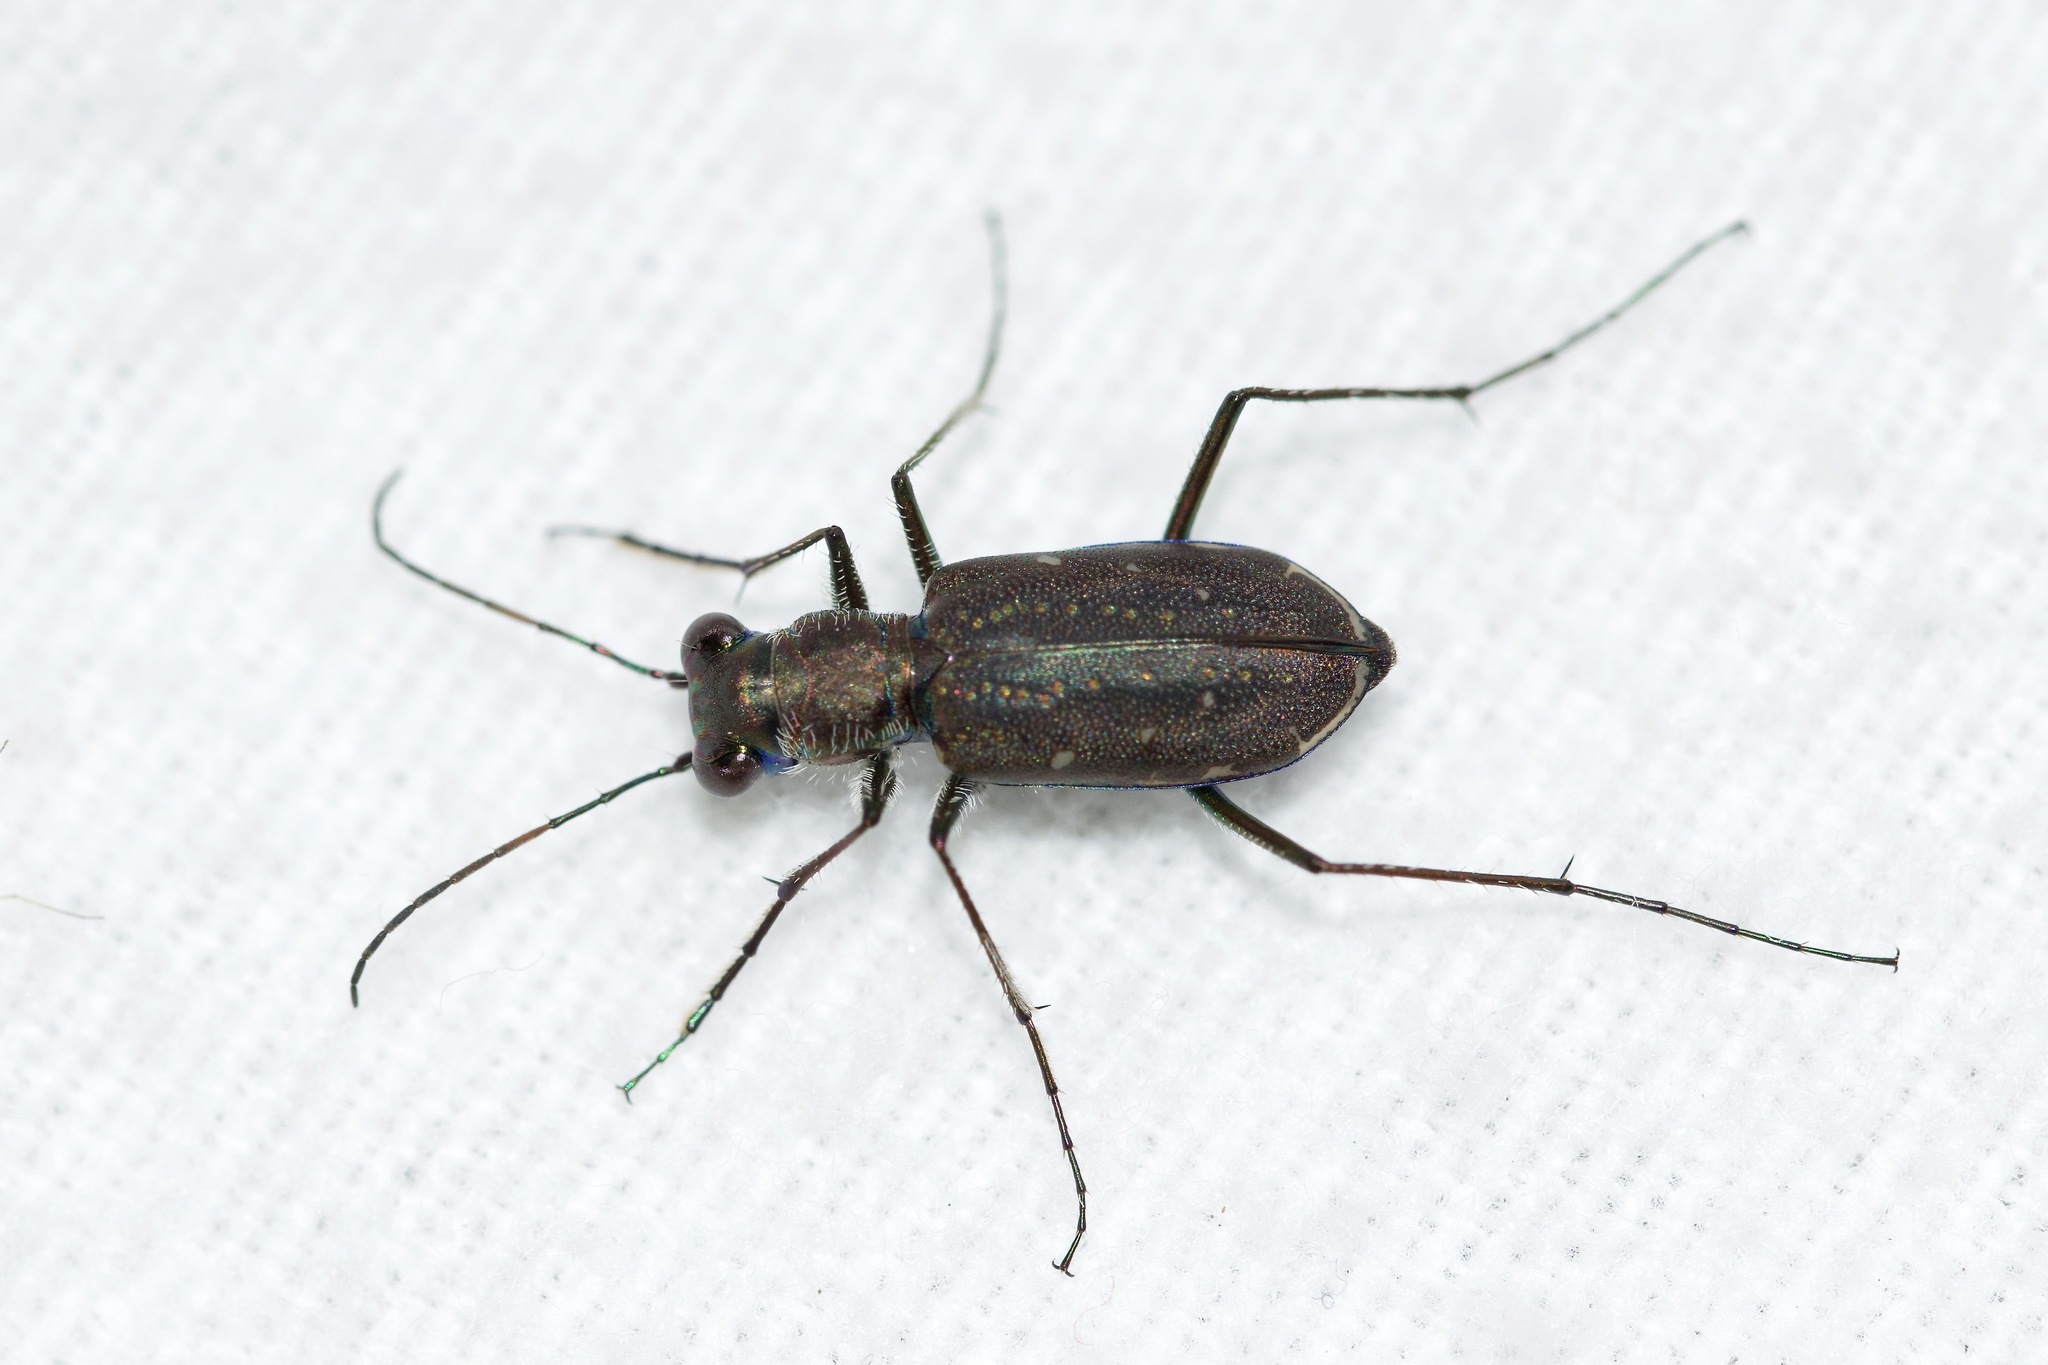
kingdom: Animalia
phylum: Arthropoda
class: Insecta
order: Coleoptera
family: Carabidae
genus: Cicindela
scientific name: Cicindela punctulata
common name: Punctured tiger beetle
